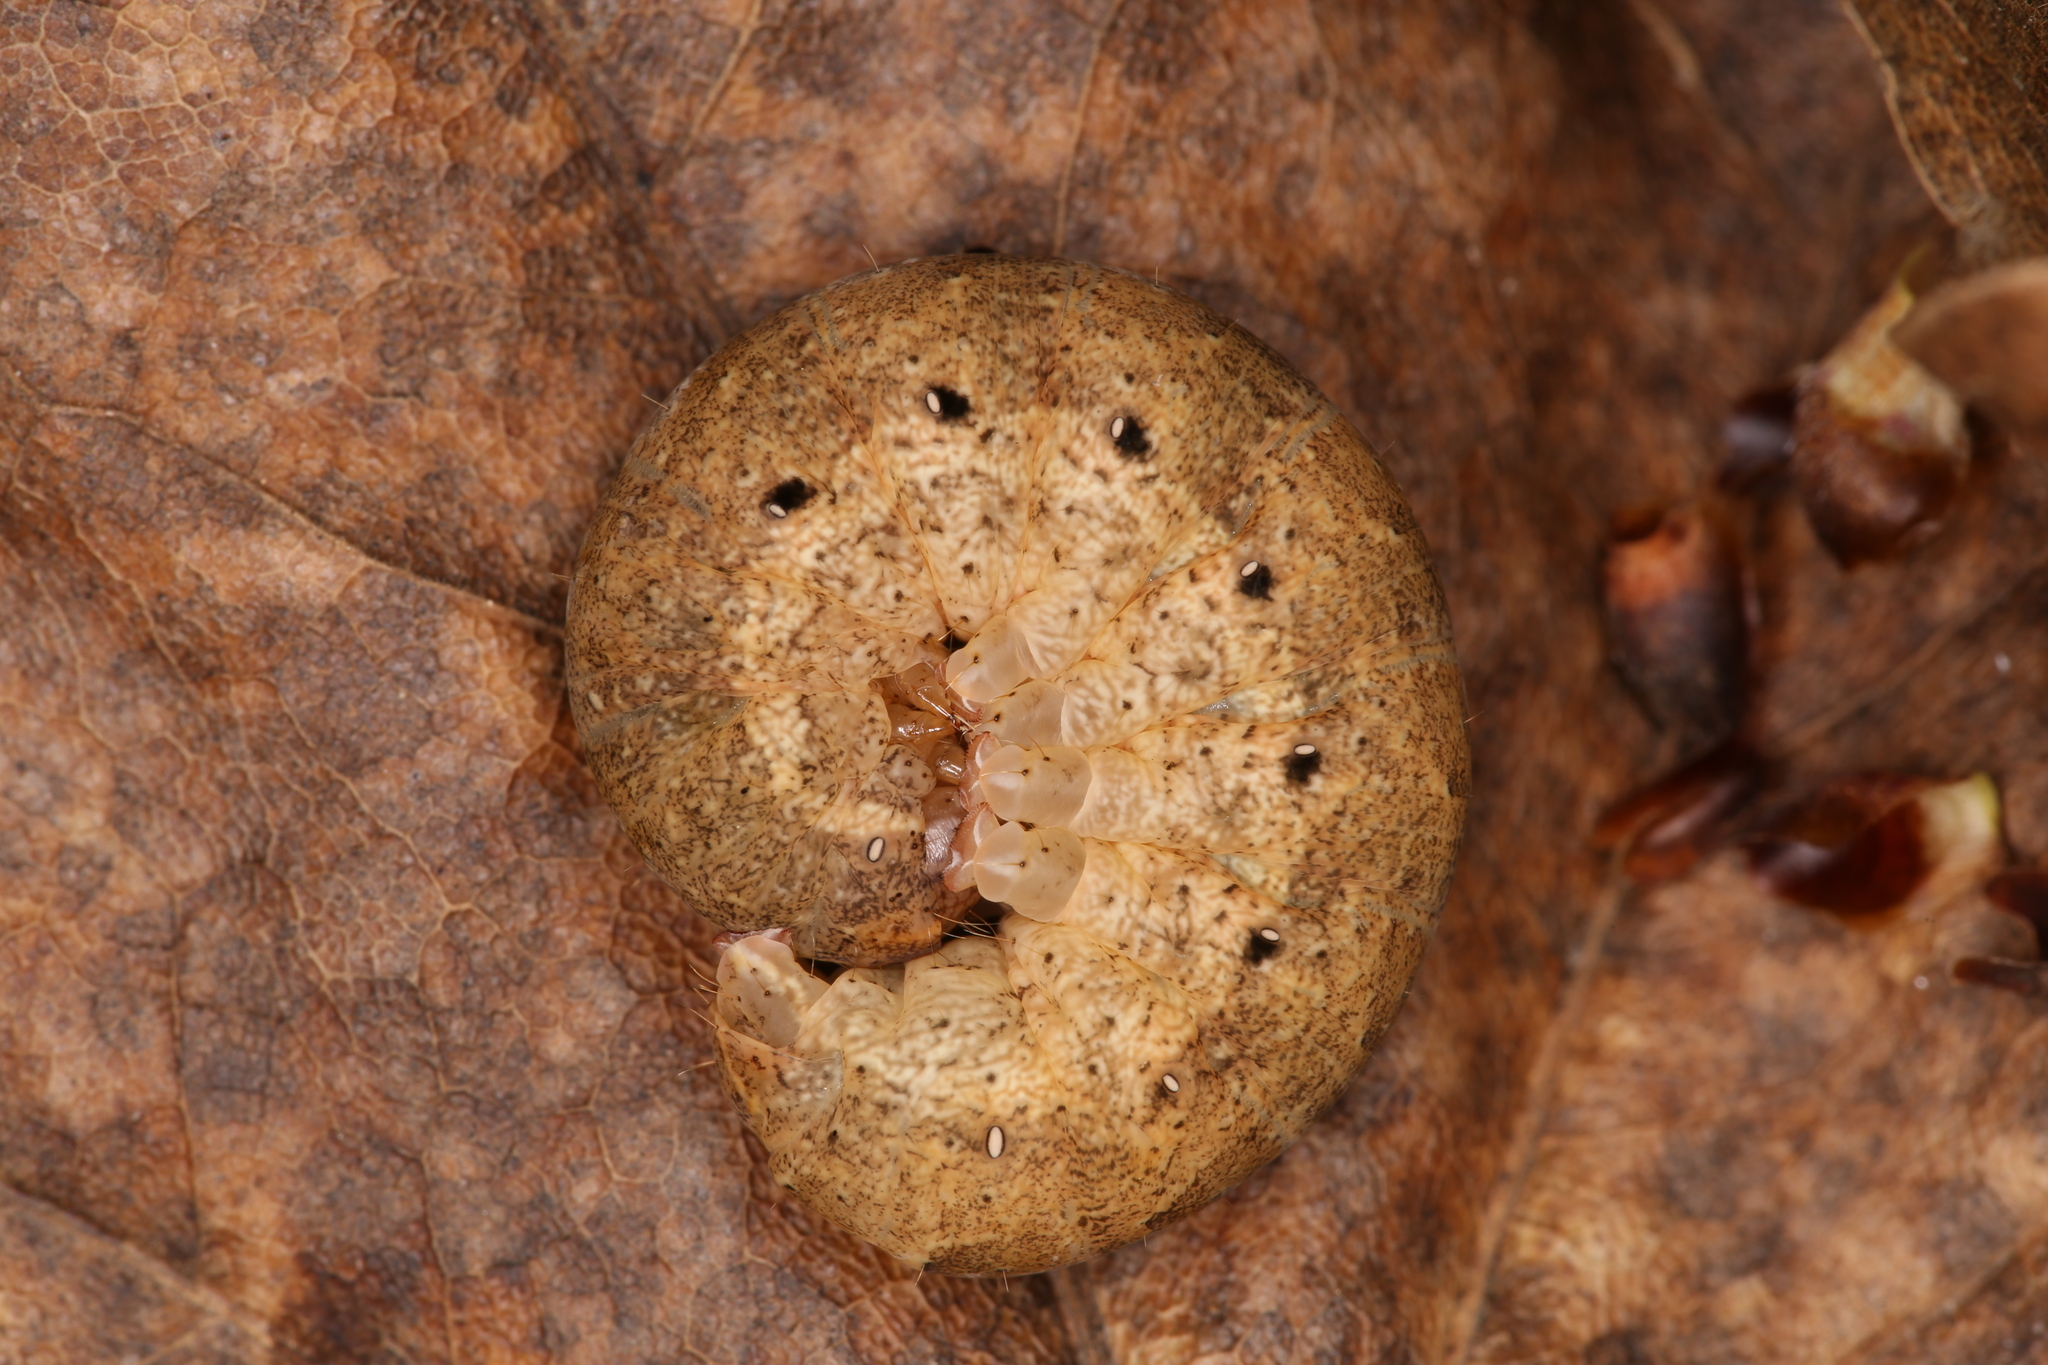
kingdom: Animalia
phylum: Arthropoda
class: Insecta
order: Lepidoptera
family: Noctuidae
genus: Noctua
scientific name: Noctua fimbriata
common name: Broad-bordered yellow underwing
